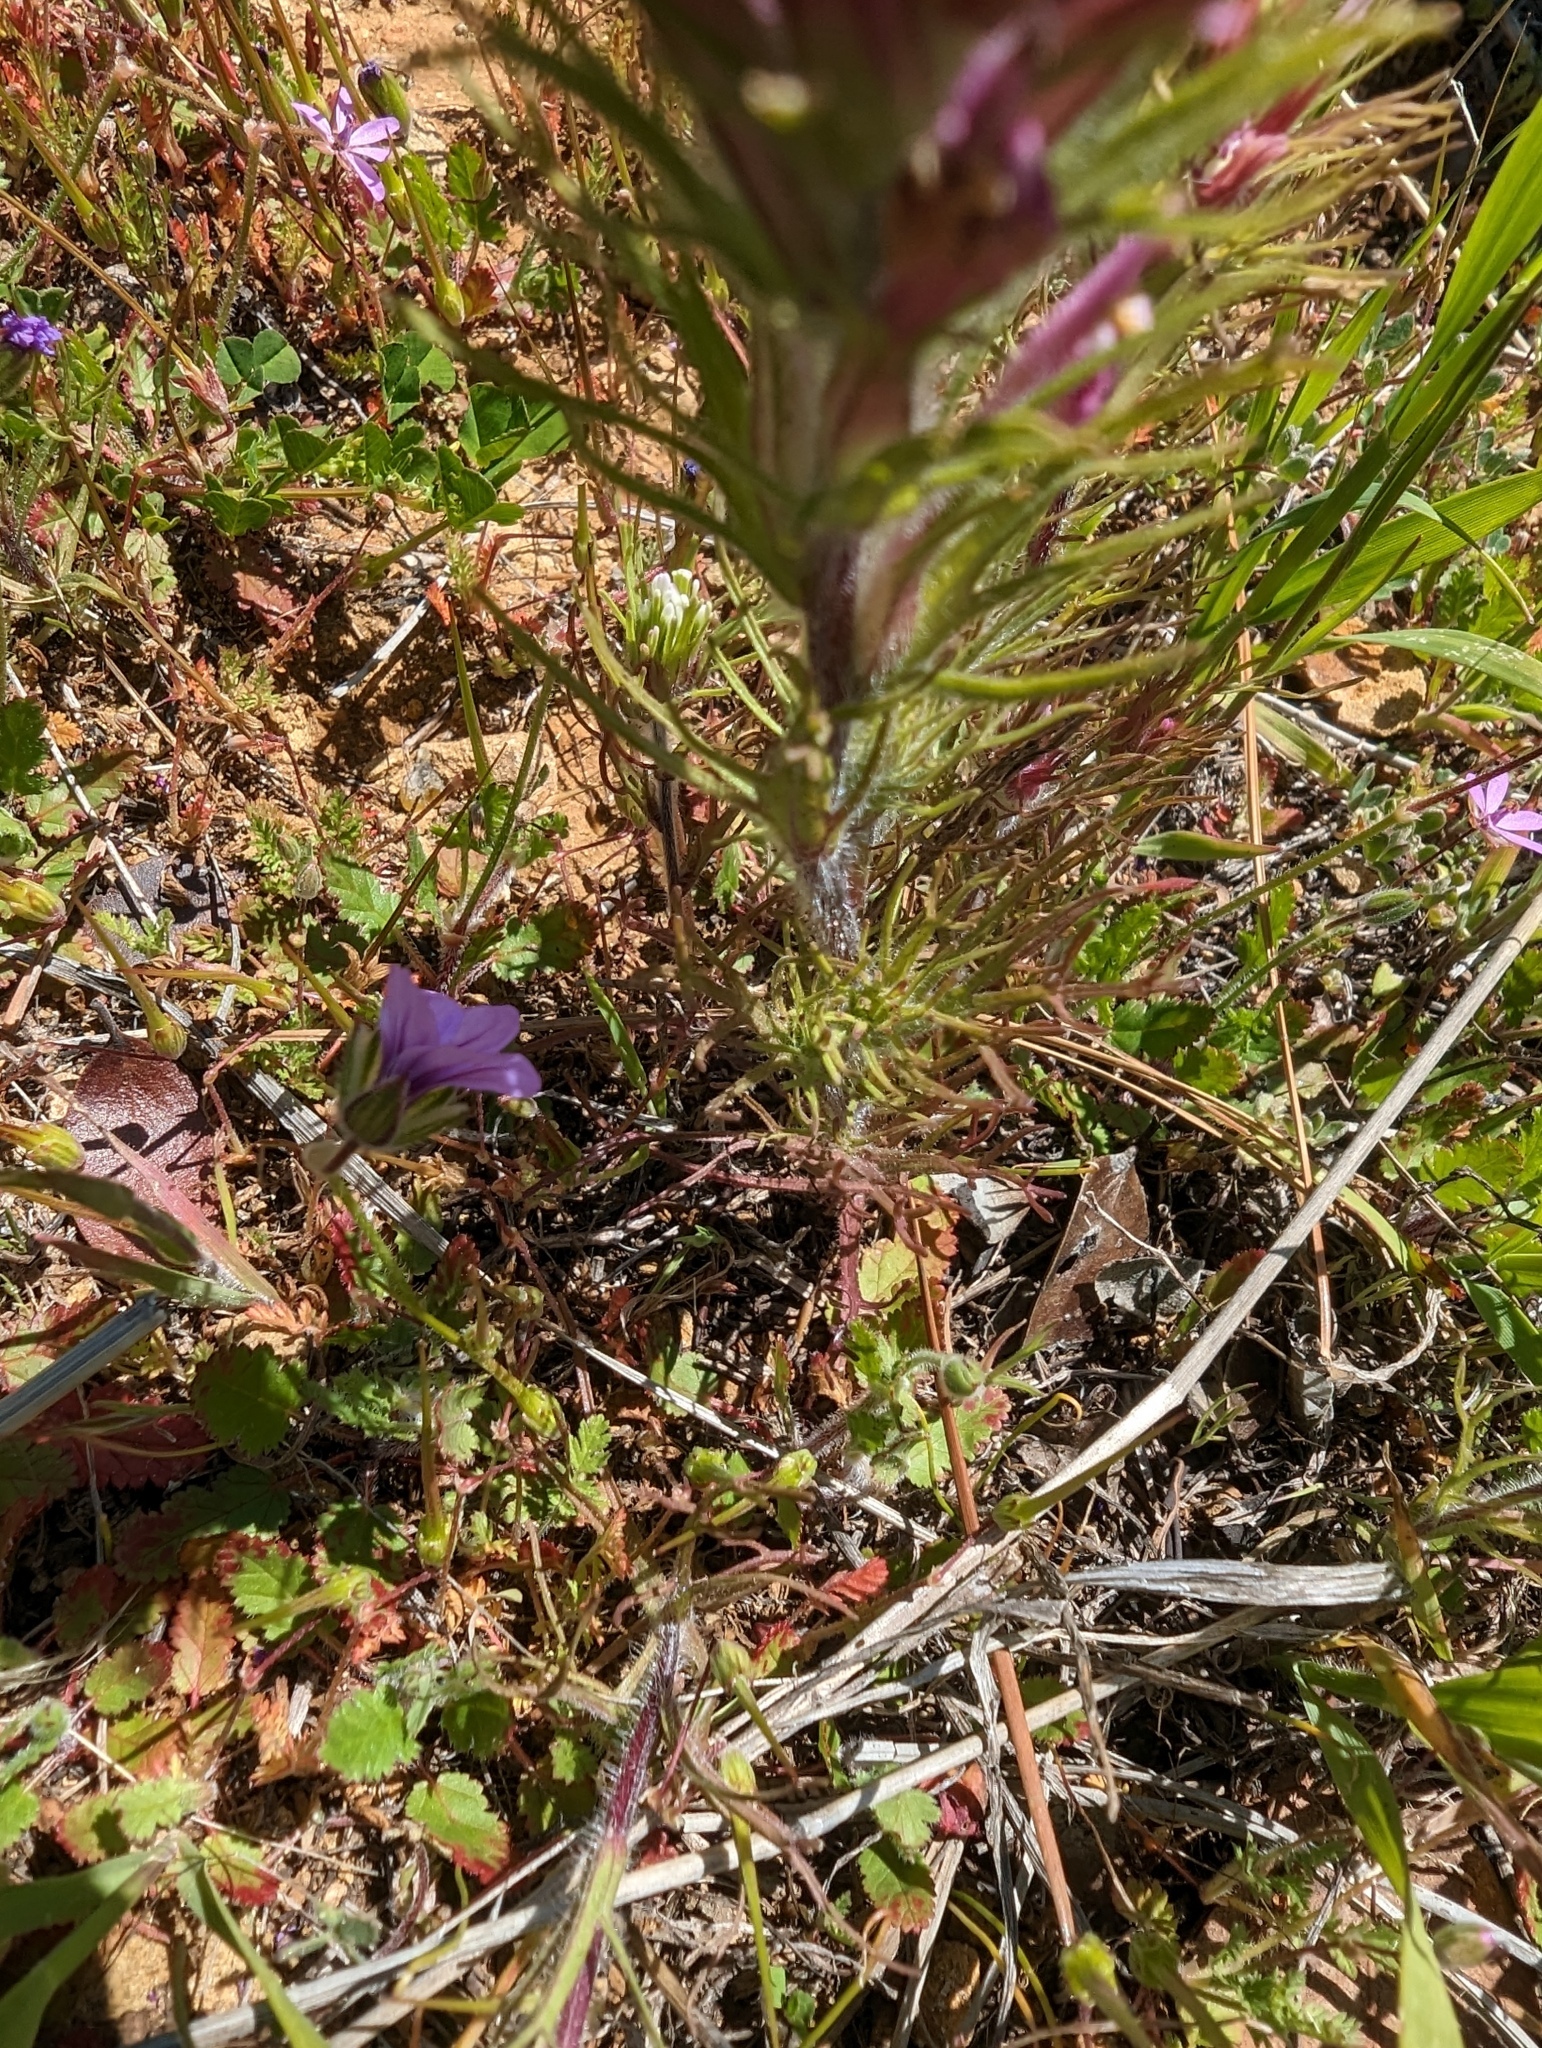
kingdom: Plantae
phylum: Tracheophyta
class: Magnoliopsida
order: Lamiales
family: Orobanchaceae
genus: Castilleja
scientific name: Castilleja exserta
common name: Purple owl-clover
